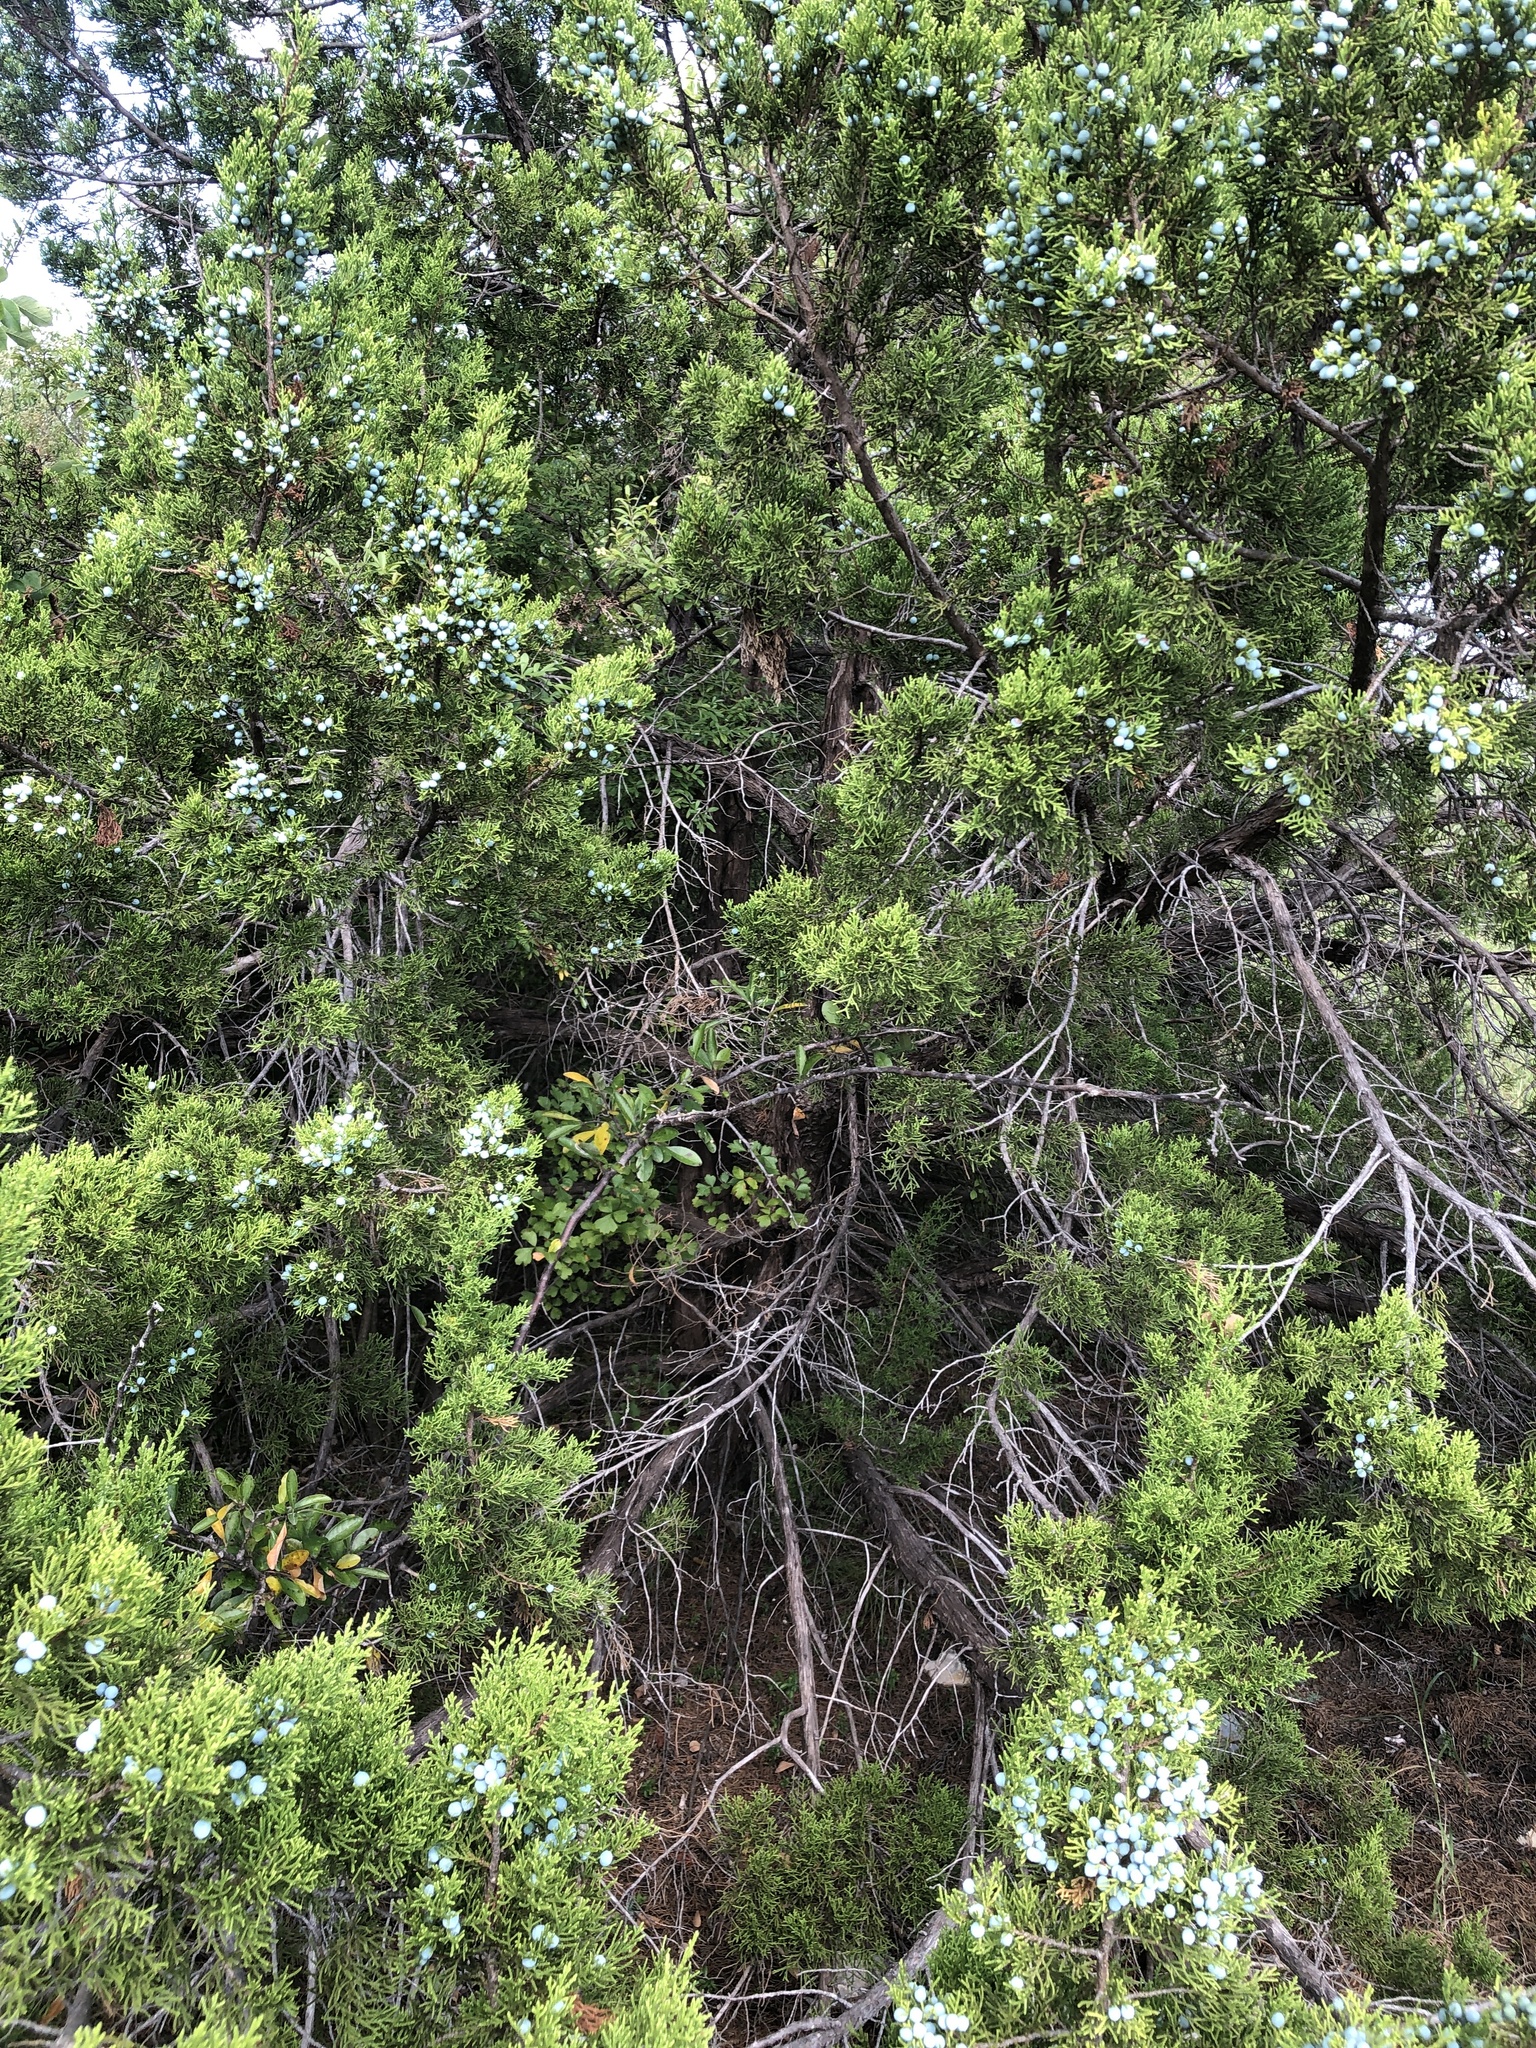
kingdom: Plantae
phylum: Tracheophyta
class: Pinopsida
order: Pinales
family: Cupressaceae
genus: Juniperus
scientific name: Juniperus ashei
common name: Mexican juniper
